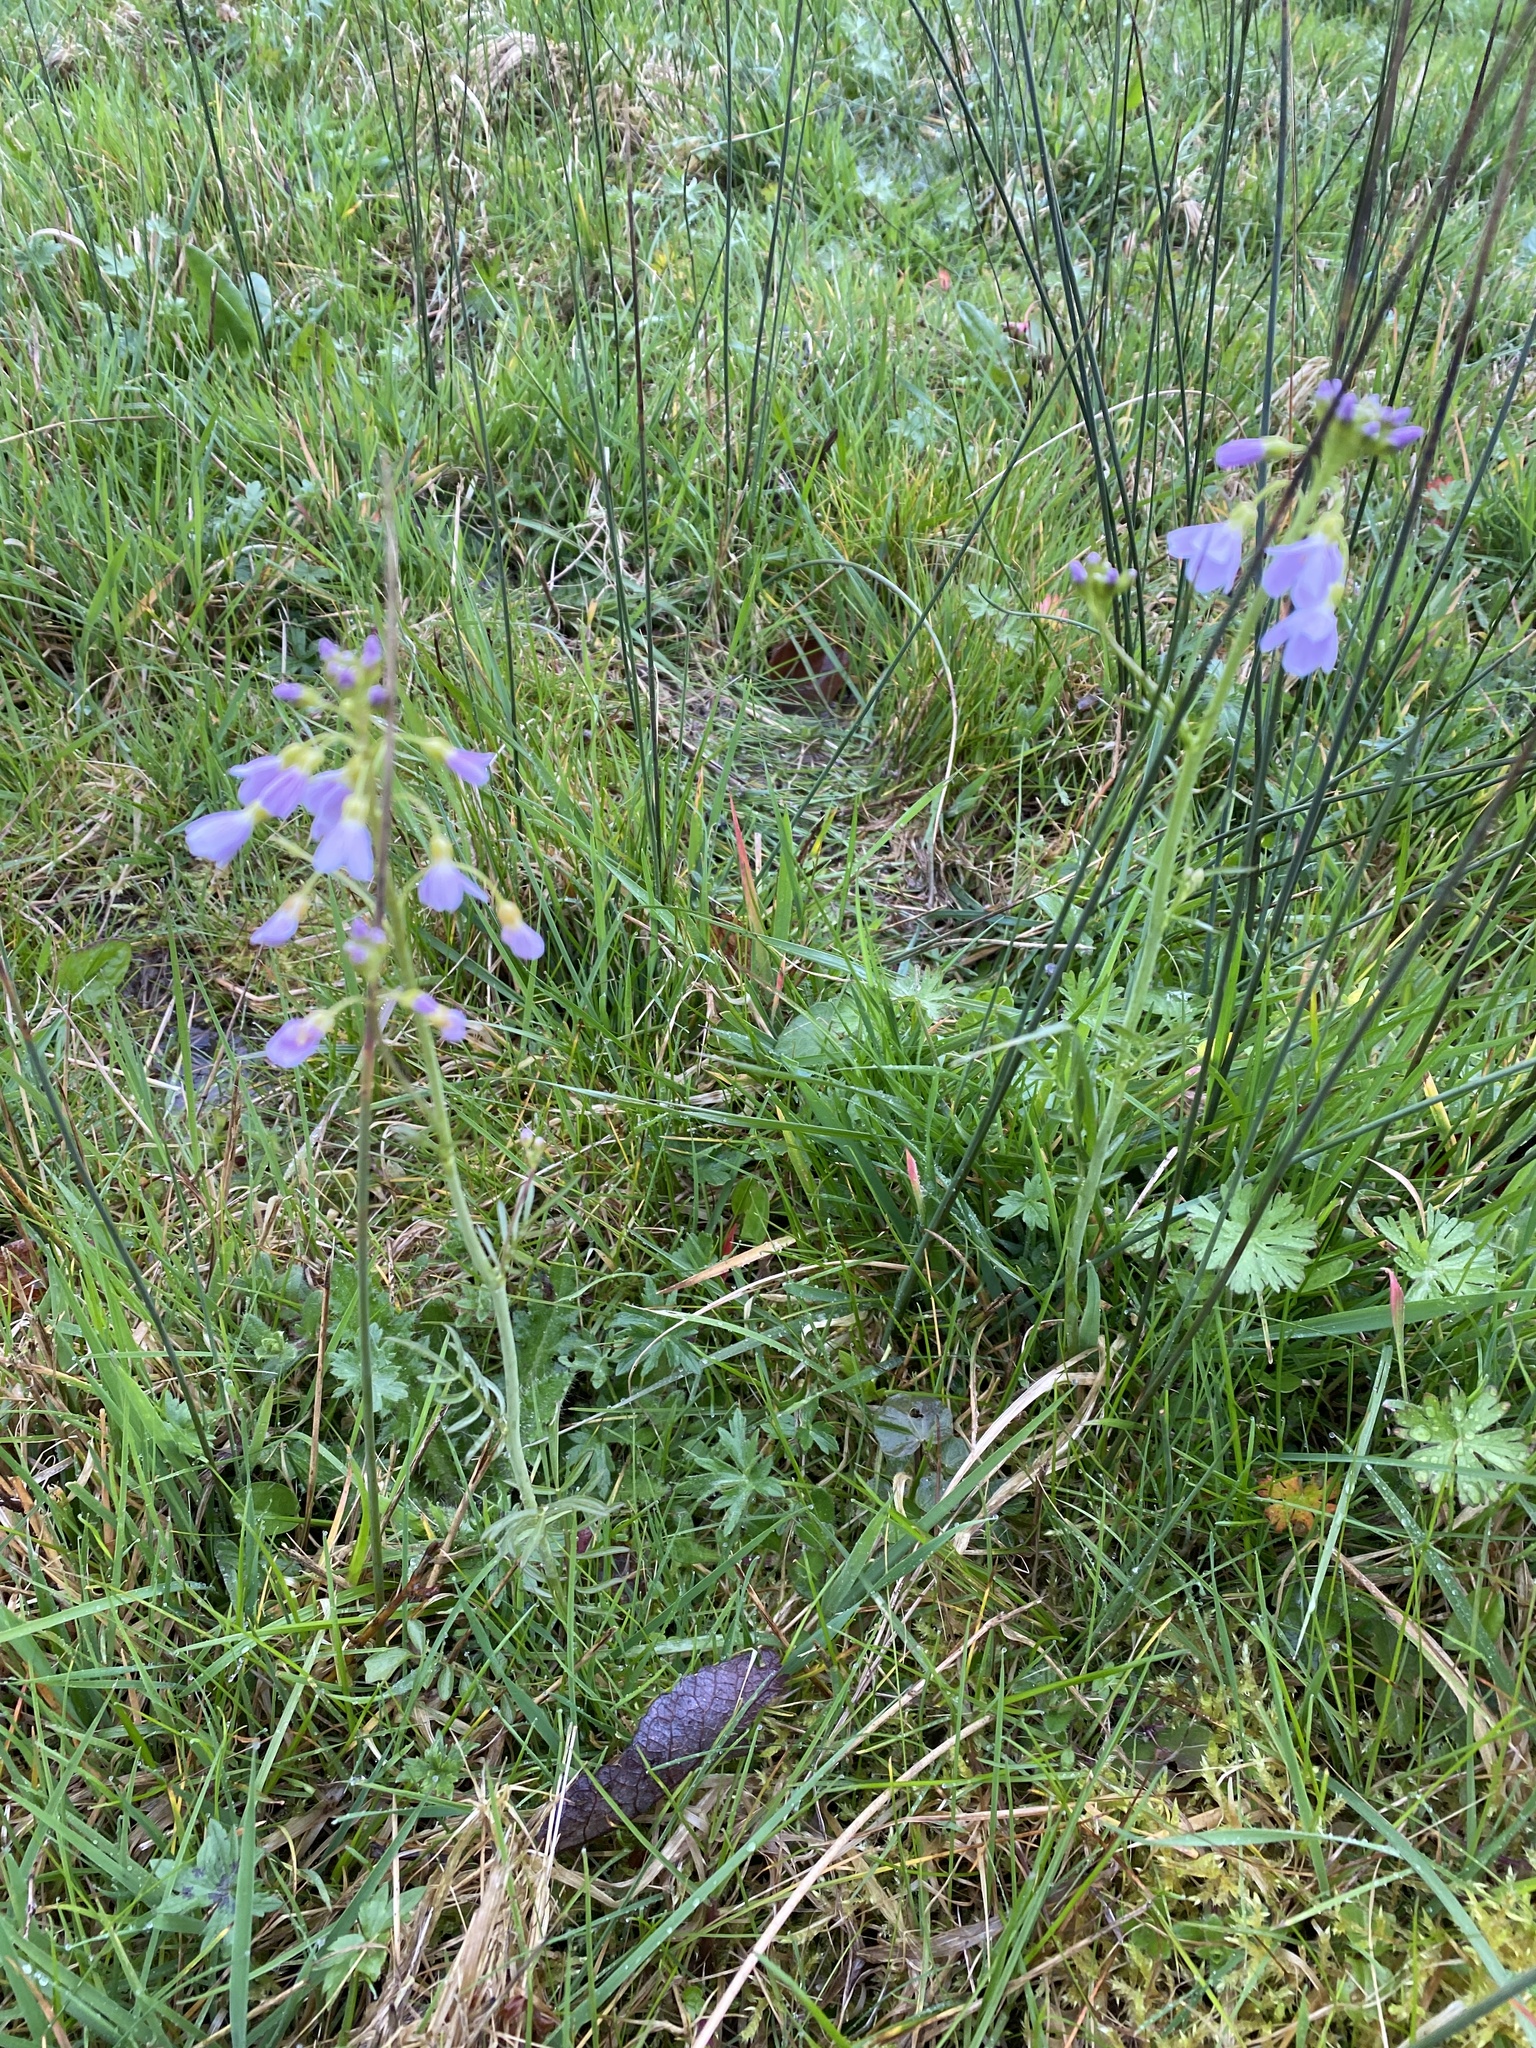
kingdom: Plantae
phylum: Tracheophyta
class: Magnoliopsida
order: Brassicales
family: Brassicaceae
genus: Cardamine
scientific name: Cardamine pratensis
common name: Cuckoo flower
